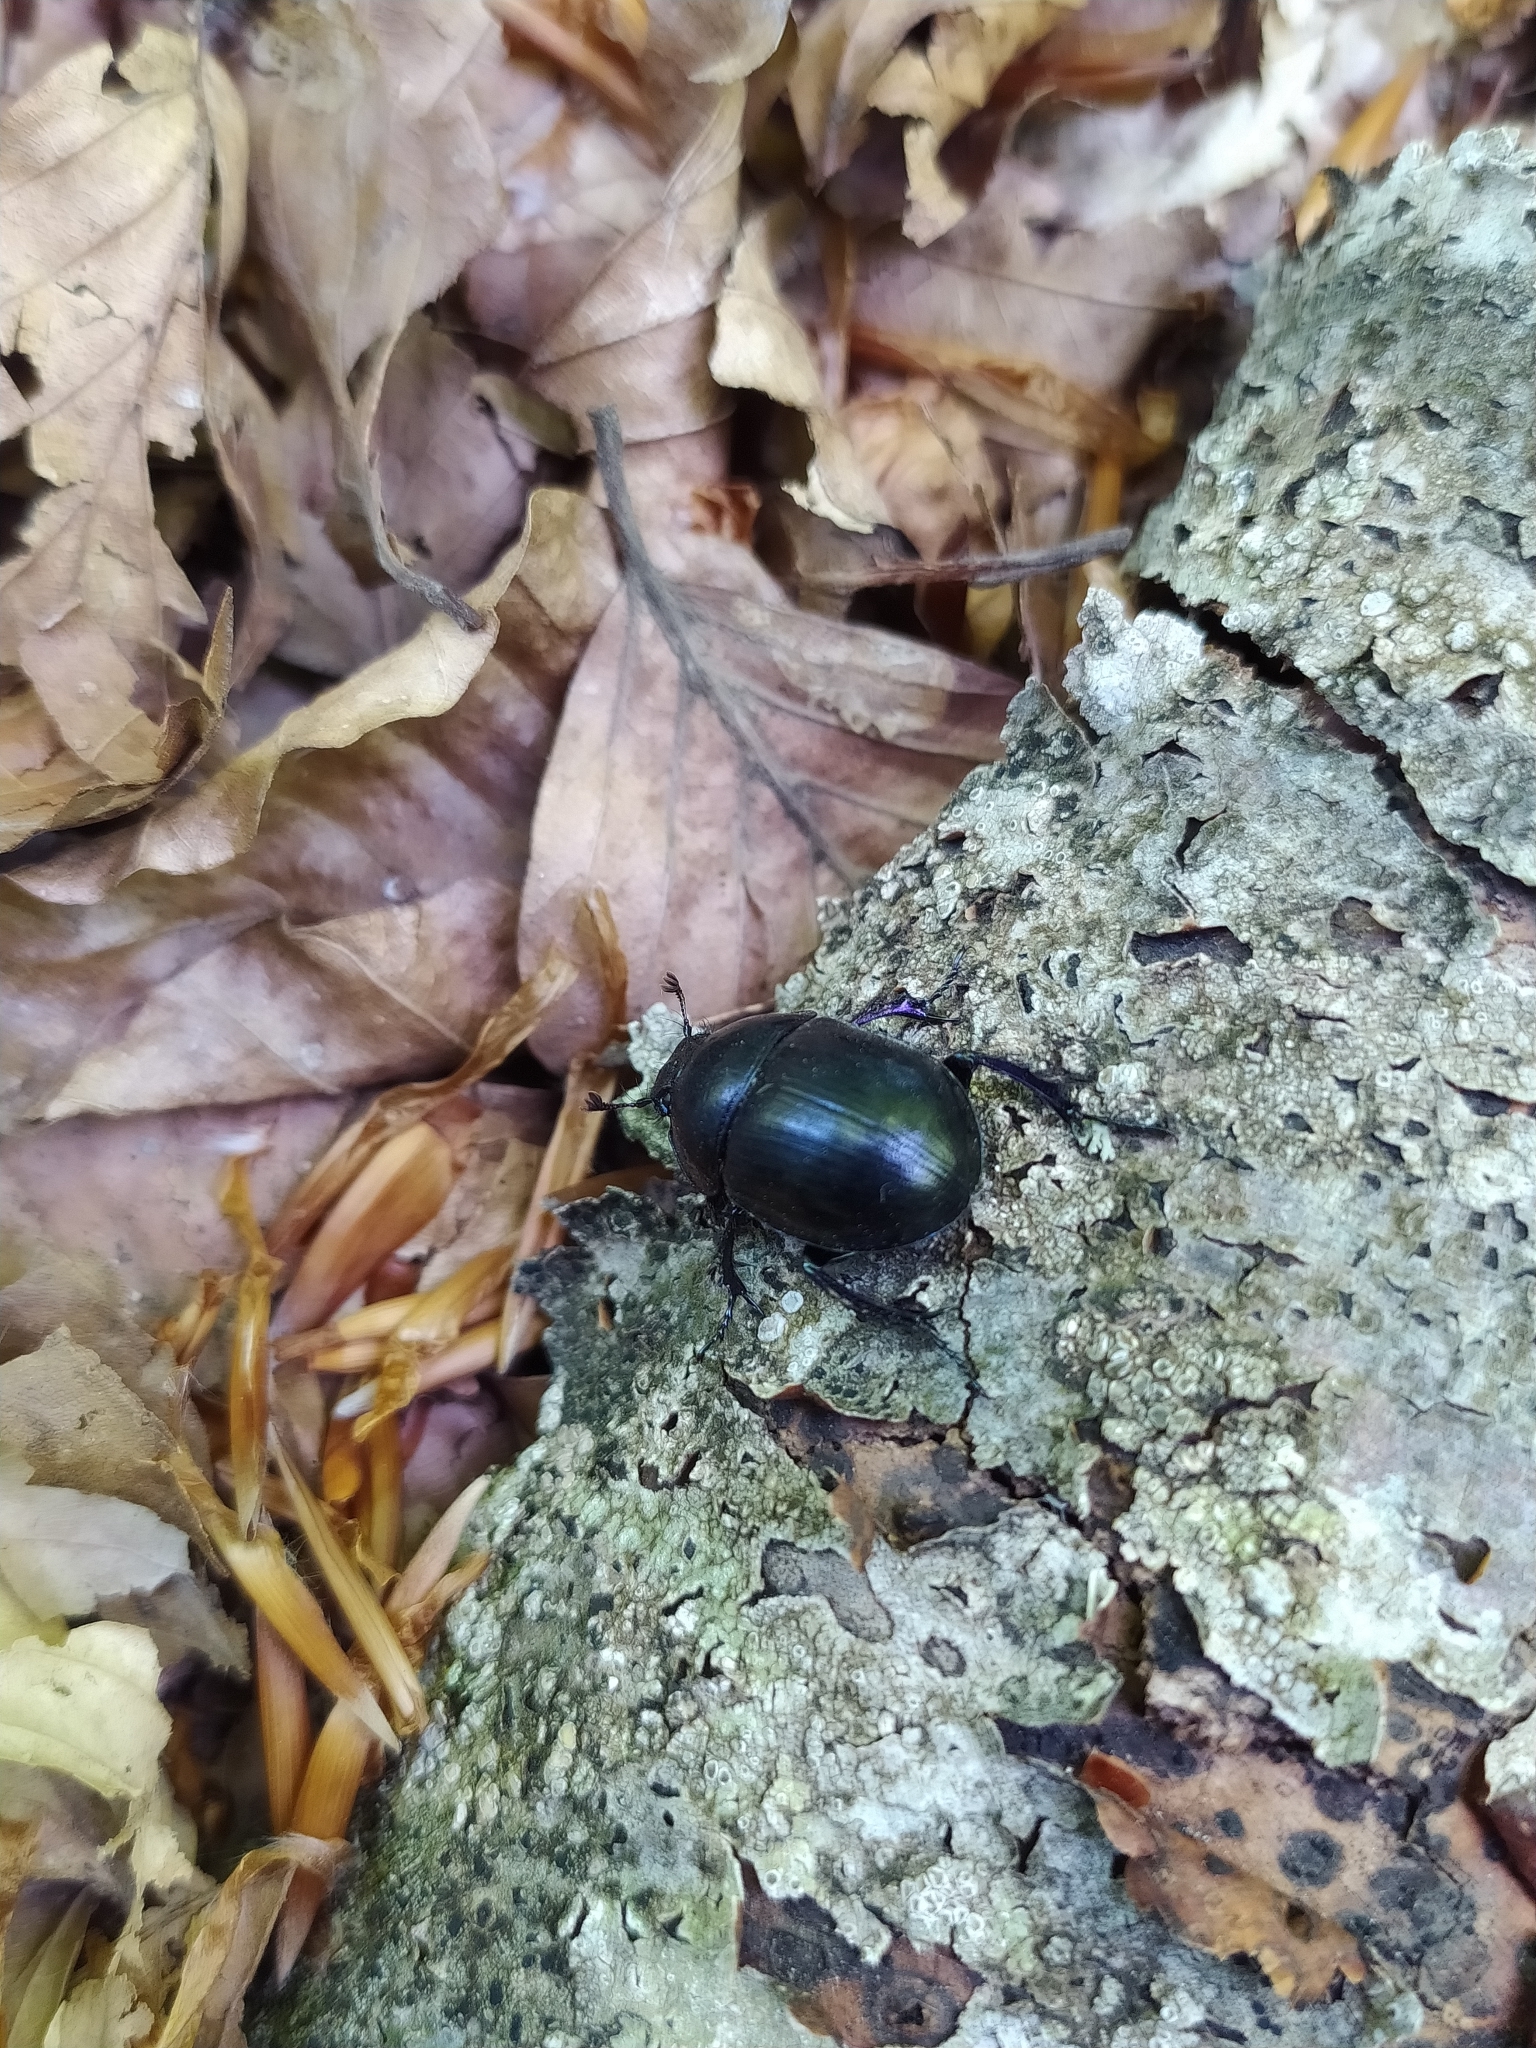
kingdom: Animalia
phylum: Arthropoda
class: Insecta
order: Coleoptera
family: Geotrupidae
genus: Anoplotrupes
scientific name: Anoplotrupes stercorosus
